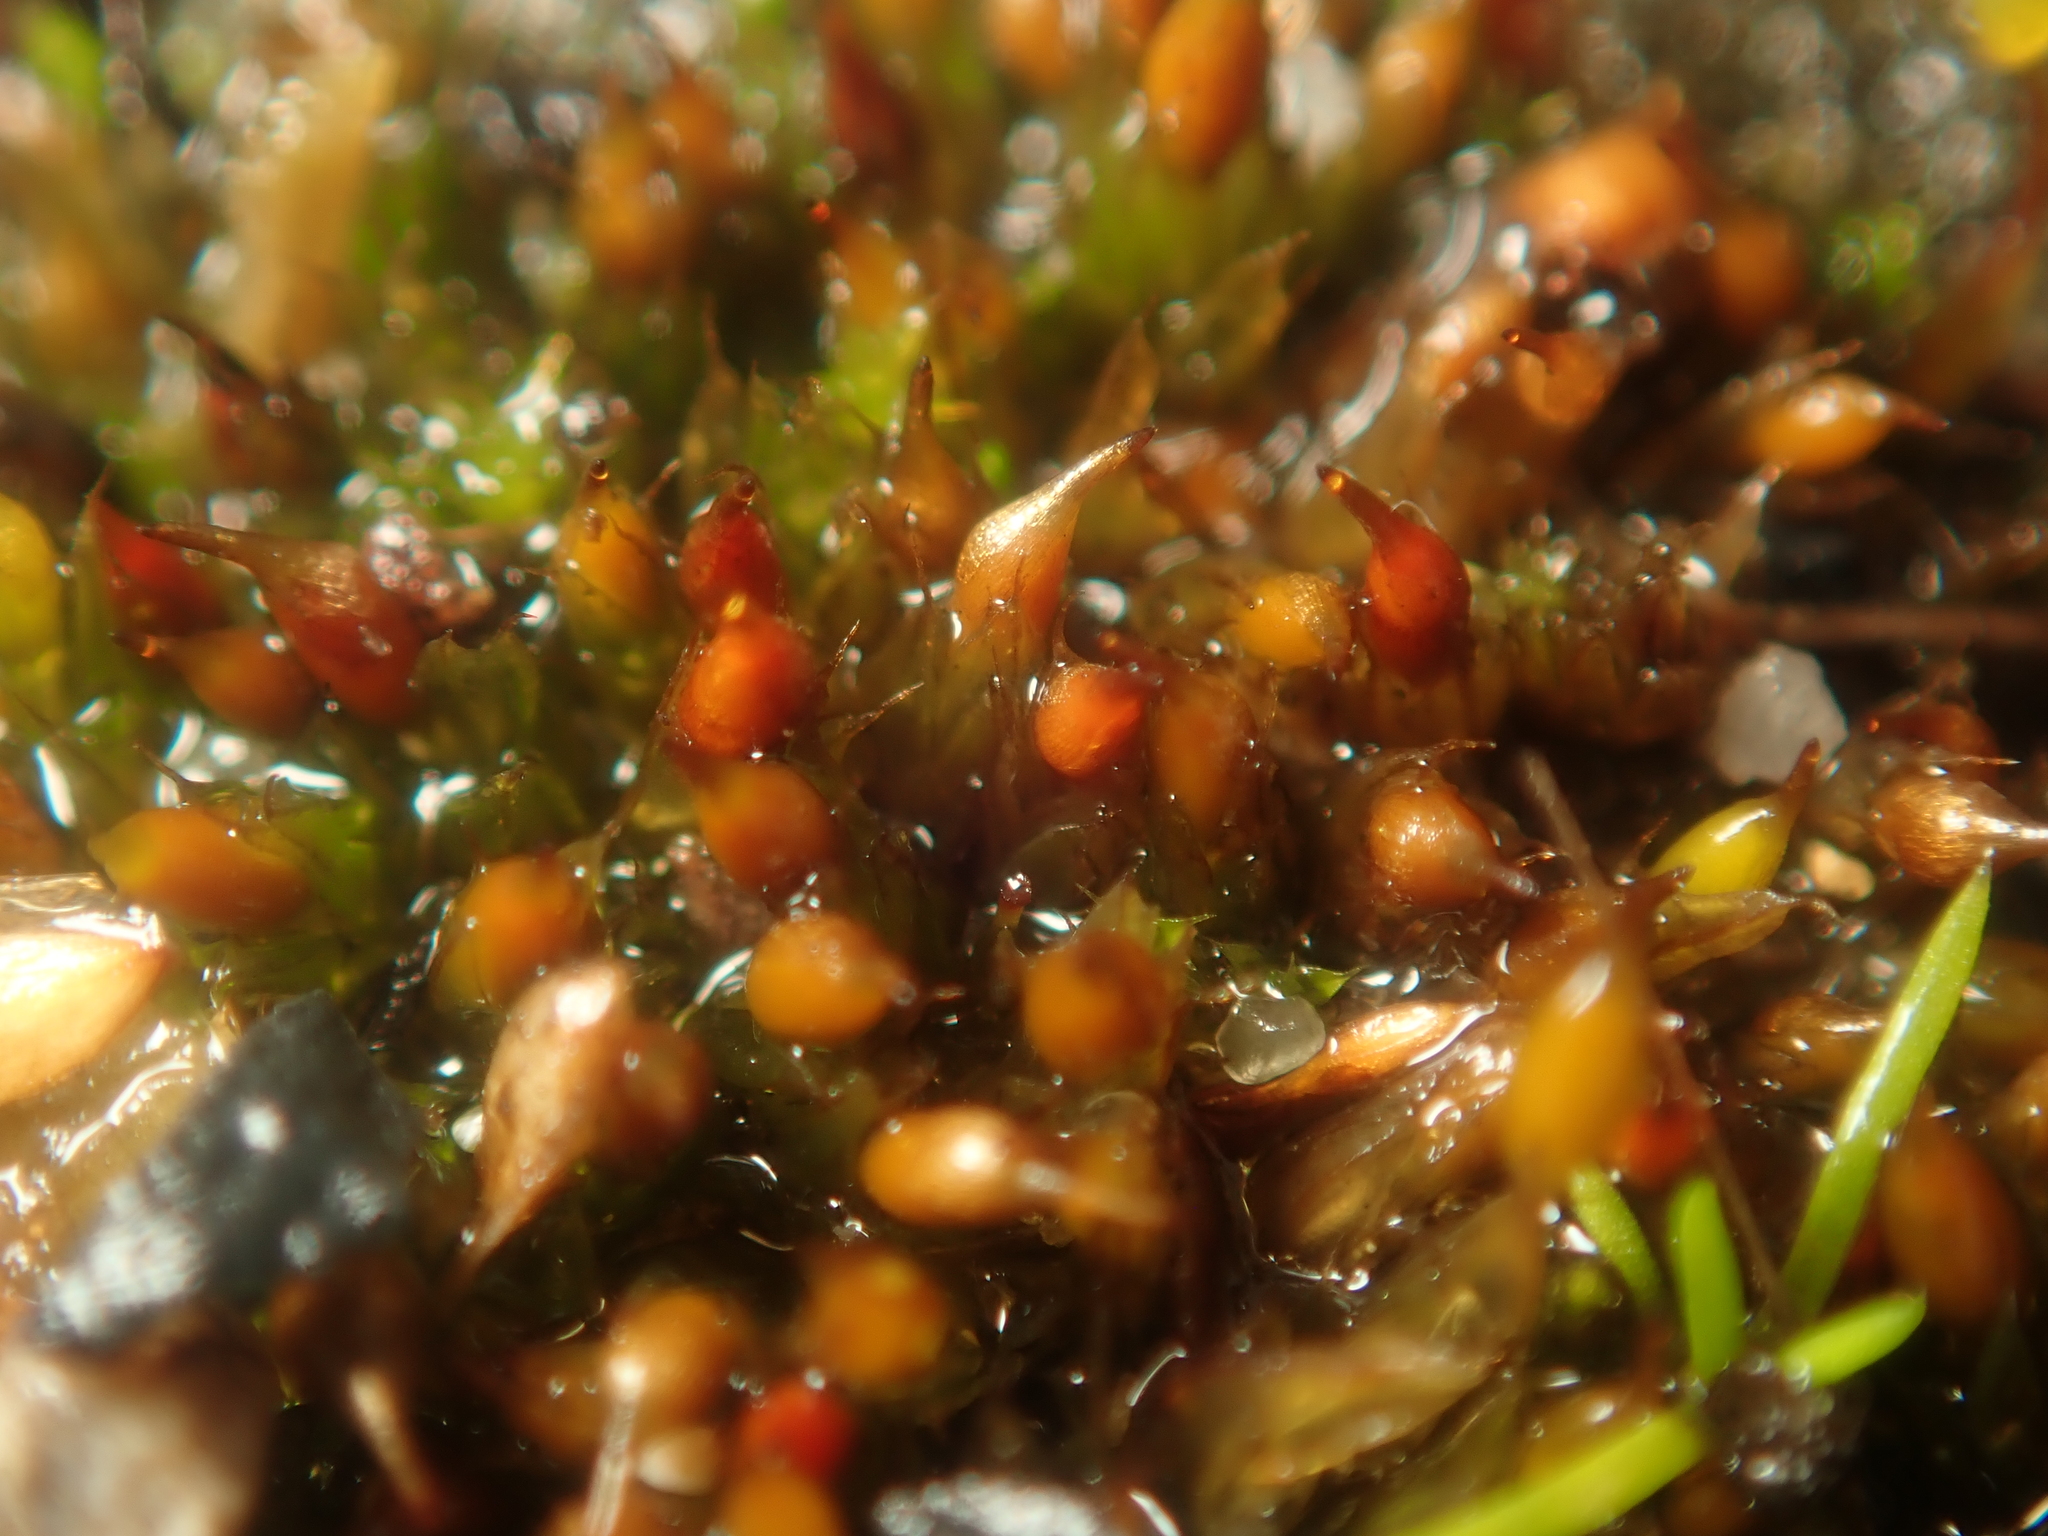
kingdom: Plantae
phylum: Bryophyta
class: Bryopsida
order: Pottiales
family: Pottiaceae
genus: Tortula
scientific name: Tortula protobryoides
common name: Tall pottia
